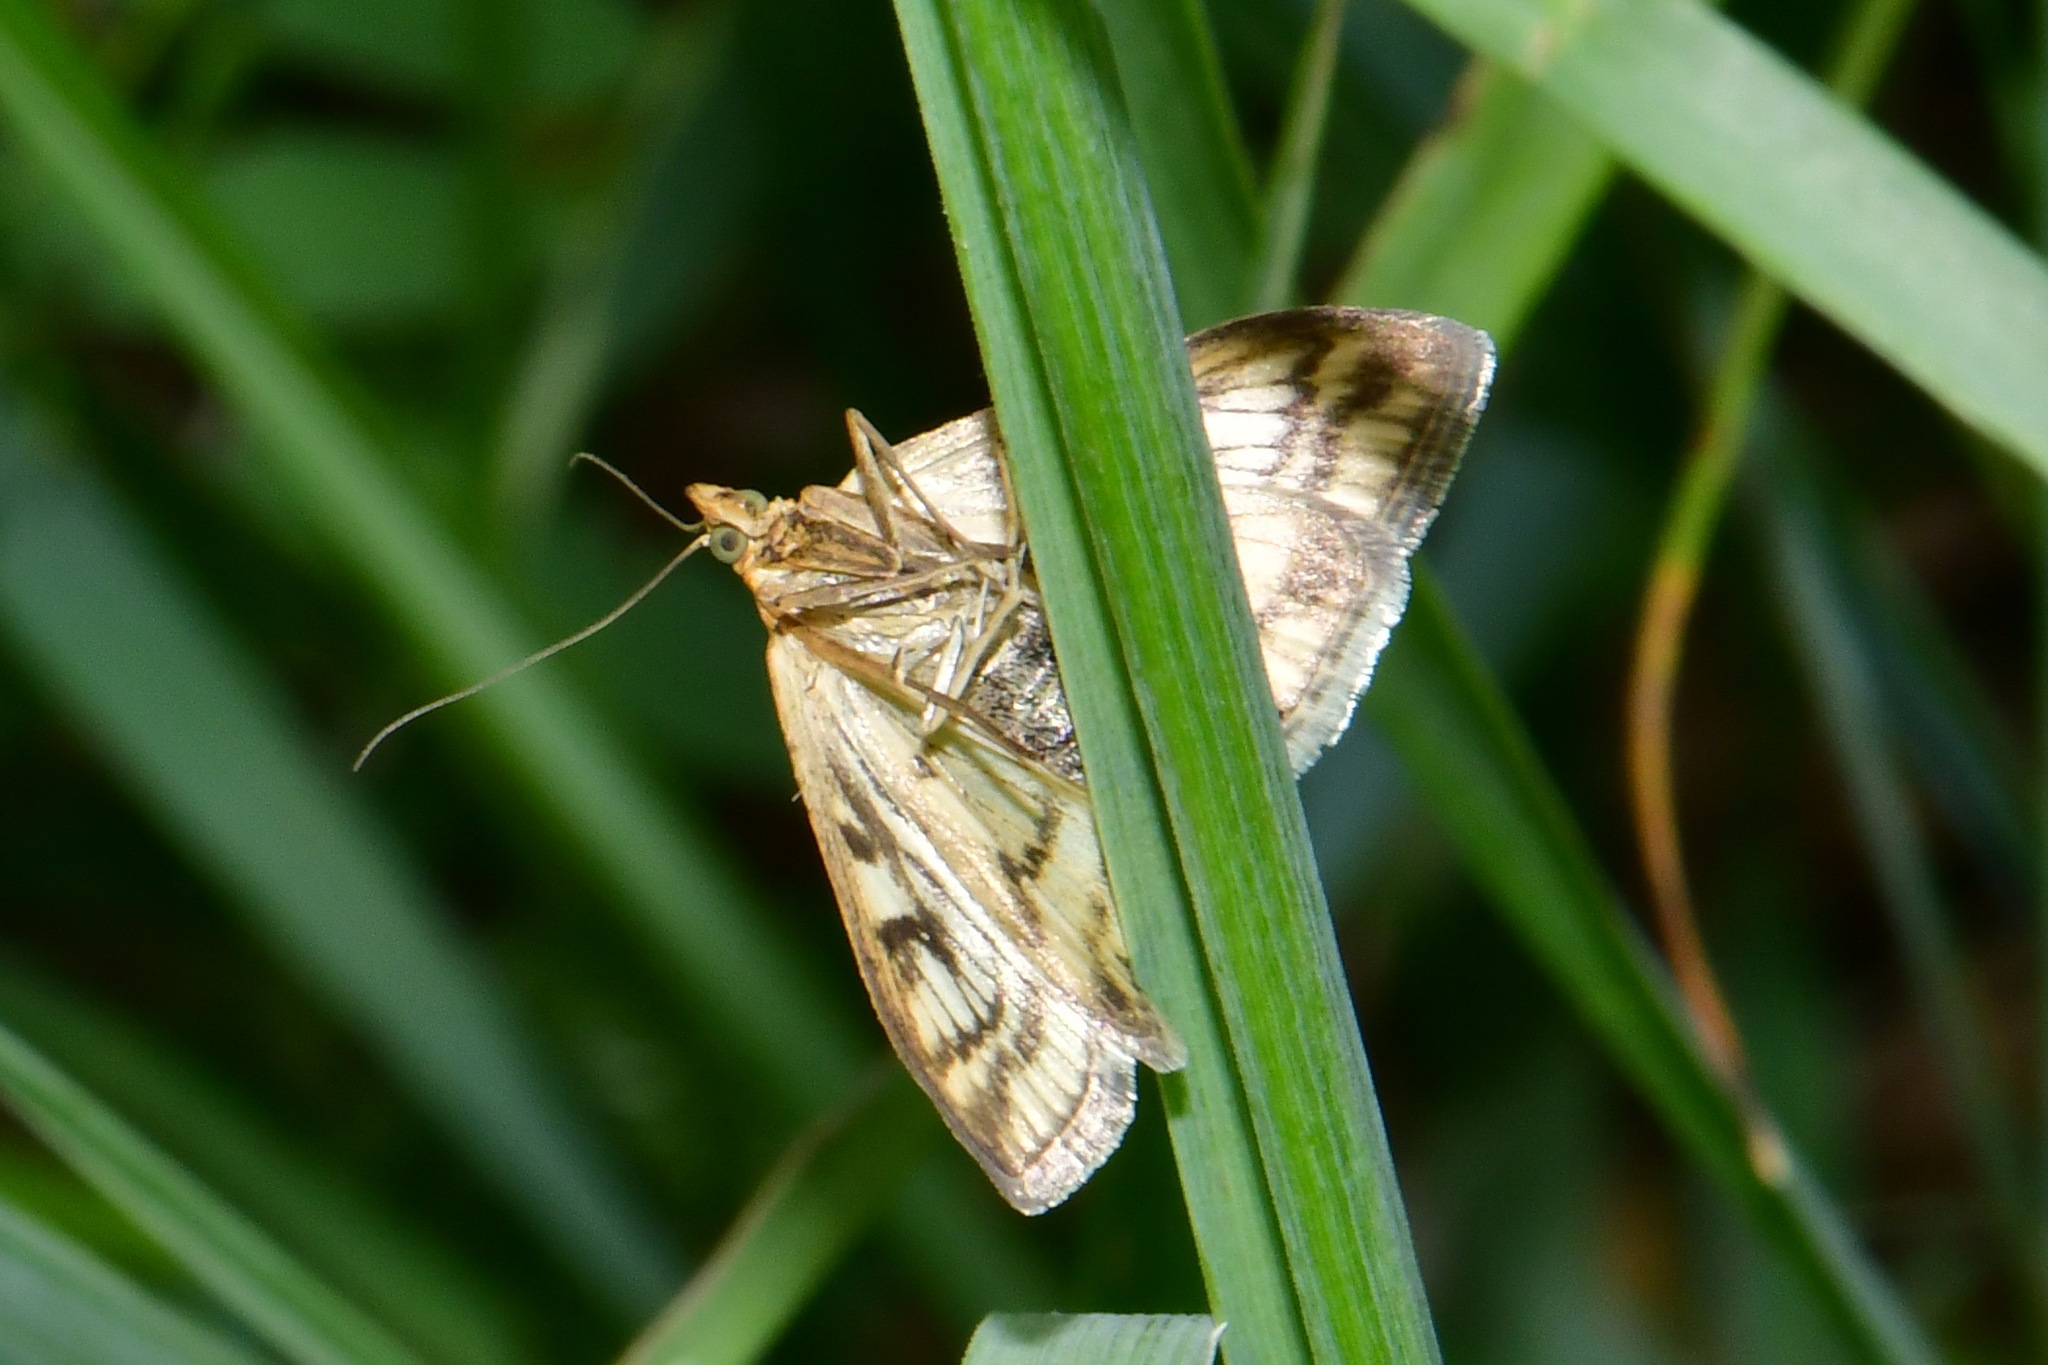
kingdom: Animalia
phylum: Arthropoda
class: Insecta
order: Lepidoptera
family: Crambidae
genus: Sitochroa
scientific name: Sitochroa verticalis
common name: Lesser pearl
